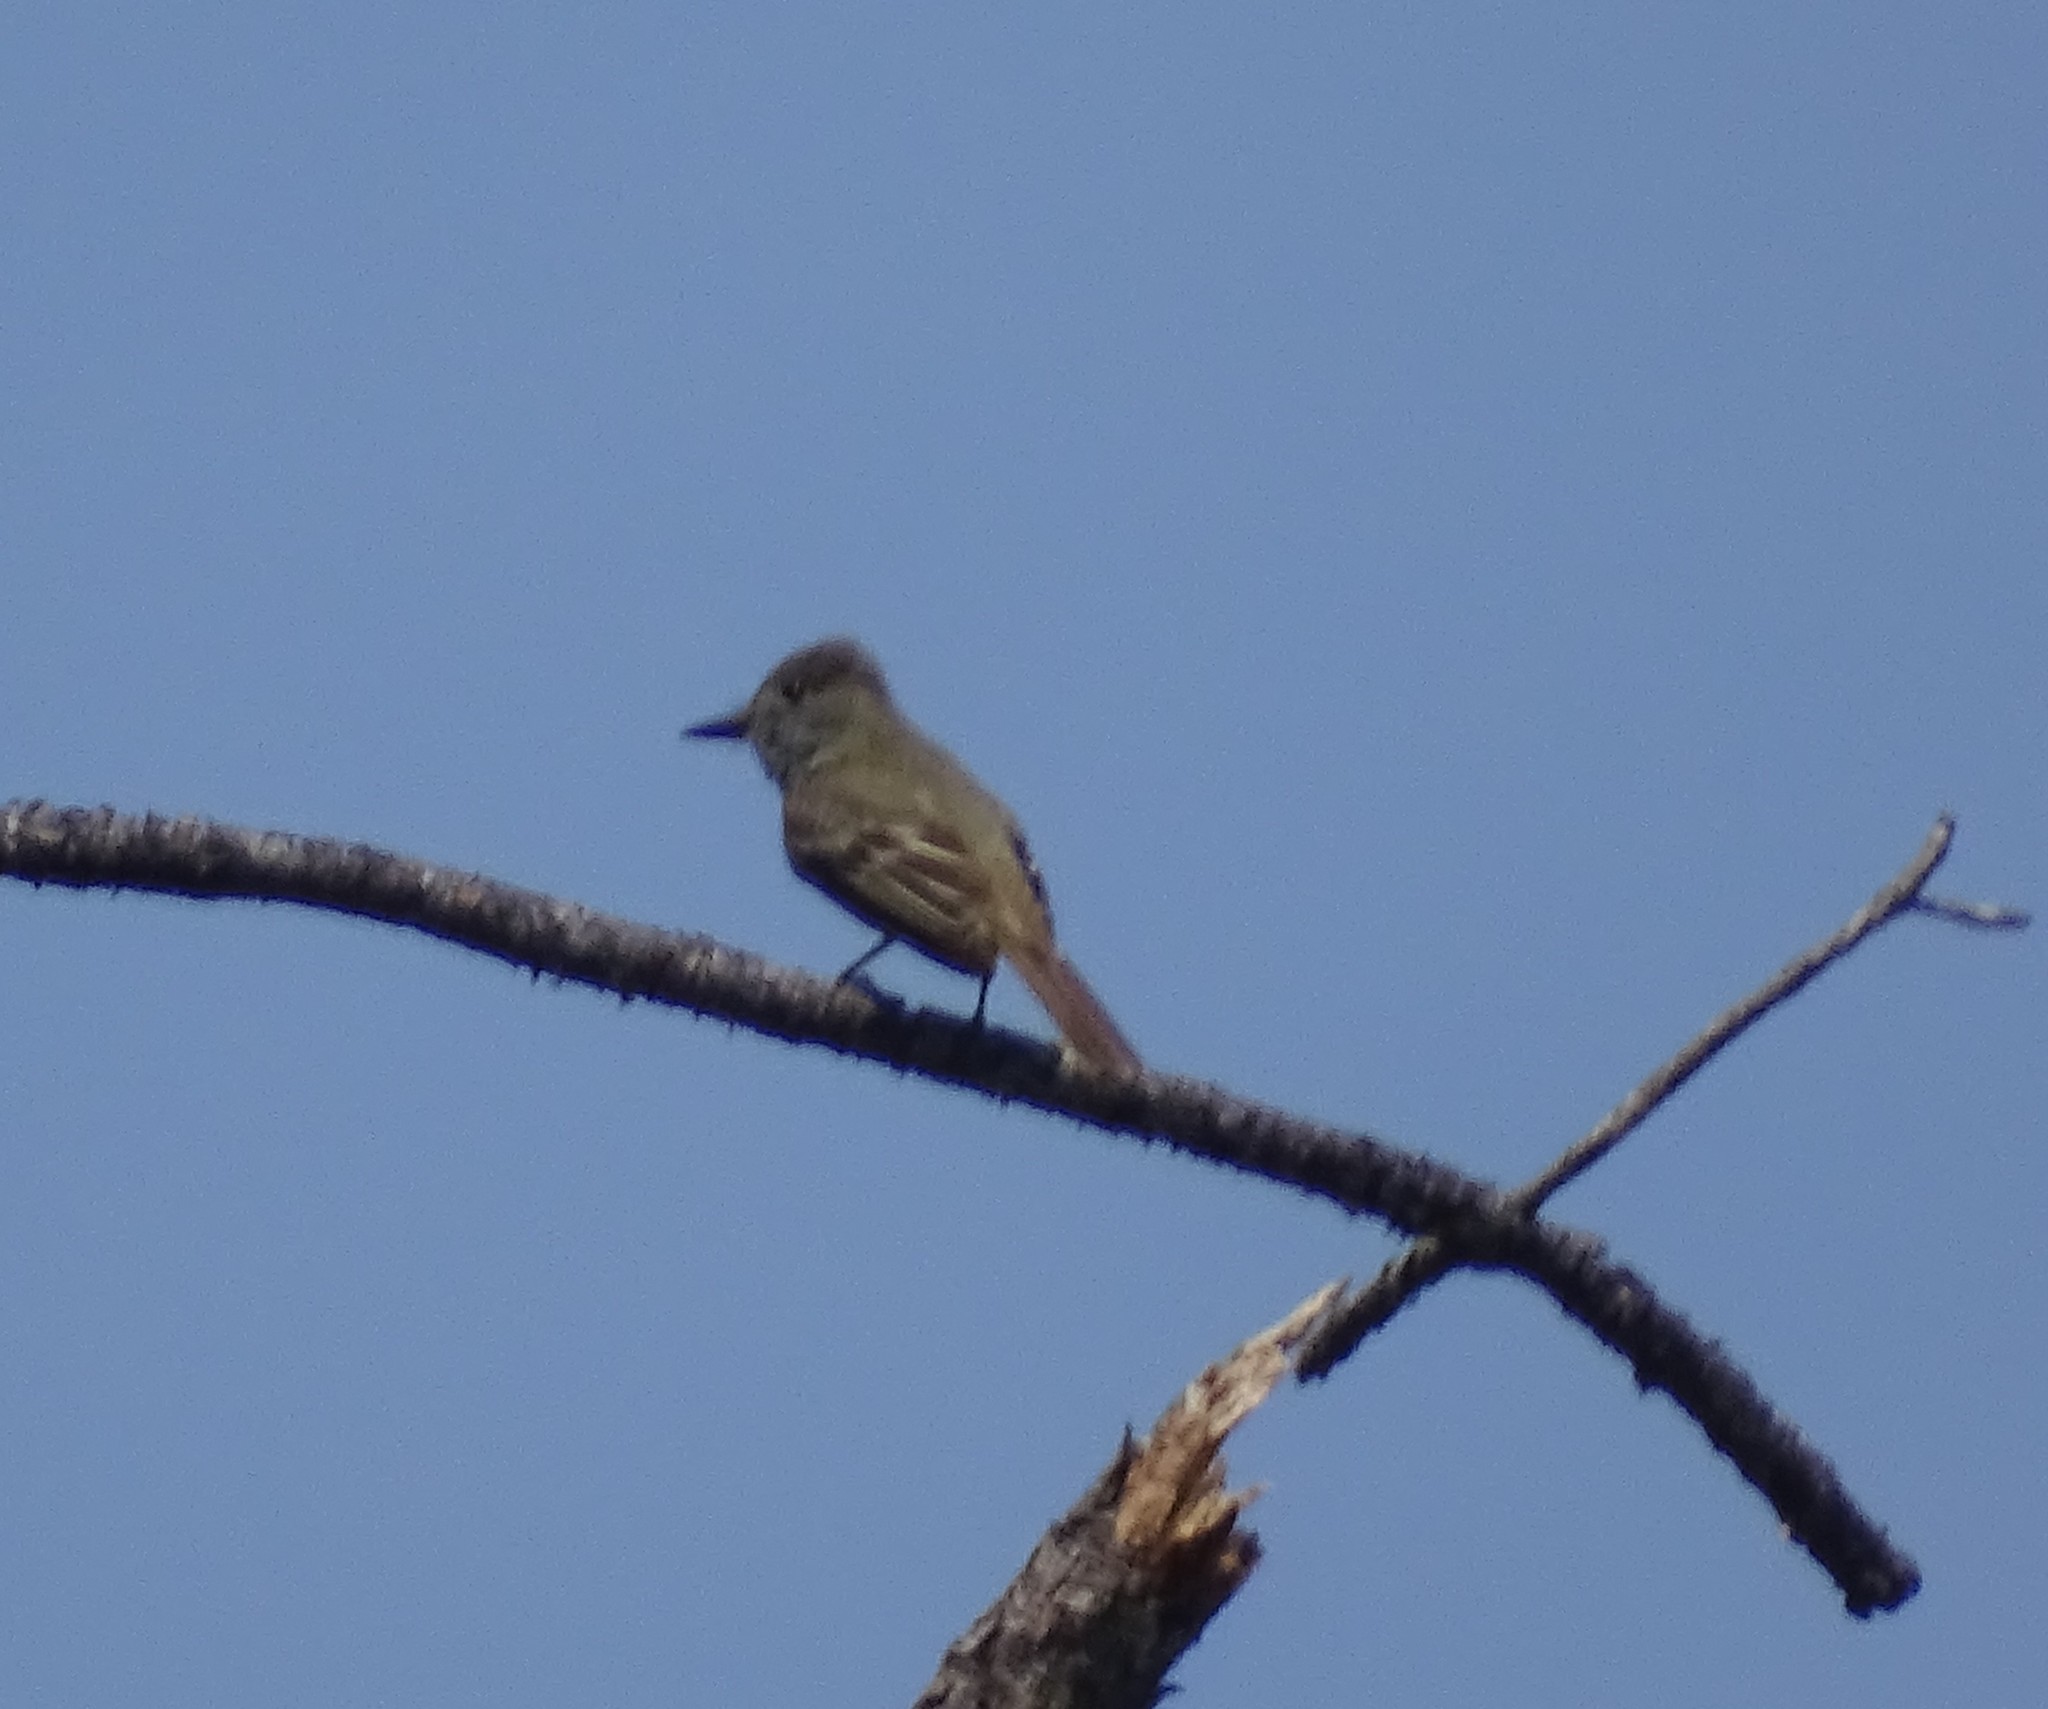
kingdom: Animalia
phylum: Chordata
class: Aves
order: Passeriformes
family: Tyrannidae
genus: Myiarchus
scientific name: Myiarchus crinitus
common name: Great crested flycatcher
